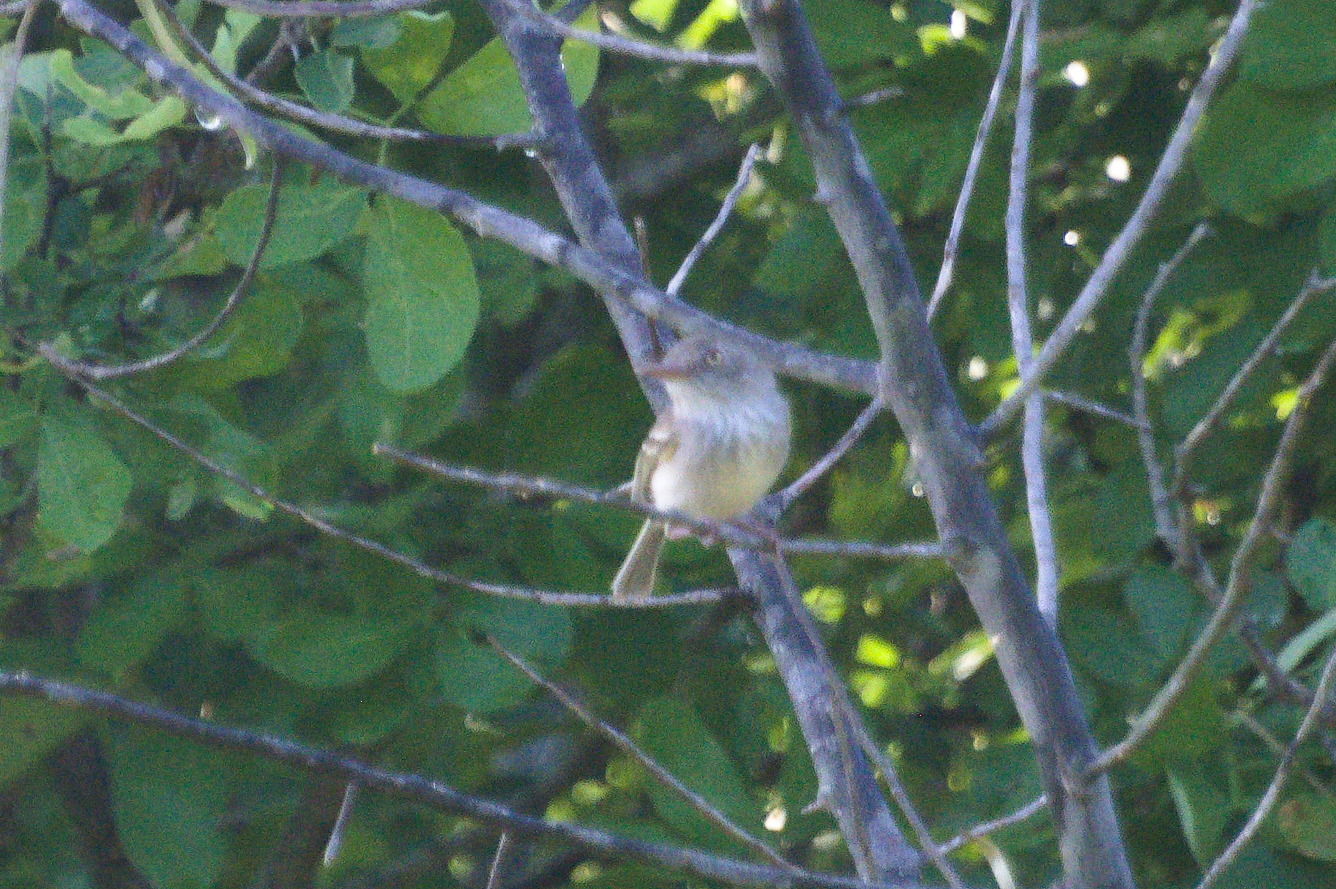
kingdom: Animalia
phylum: Chordata
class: Aves
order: Passeriformes
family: Tyrannidae
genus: Hemitriccus
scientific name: Hemitriccus margaritaceiventer
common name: Pearly-vented tody-tyrant
